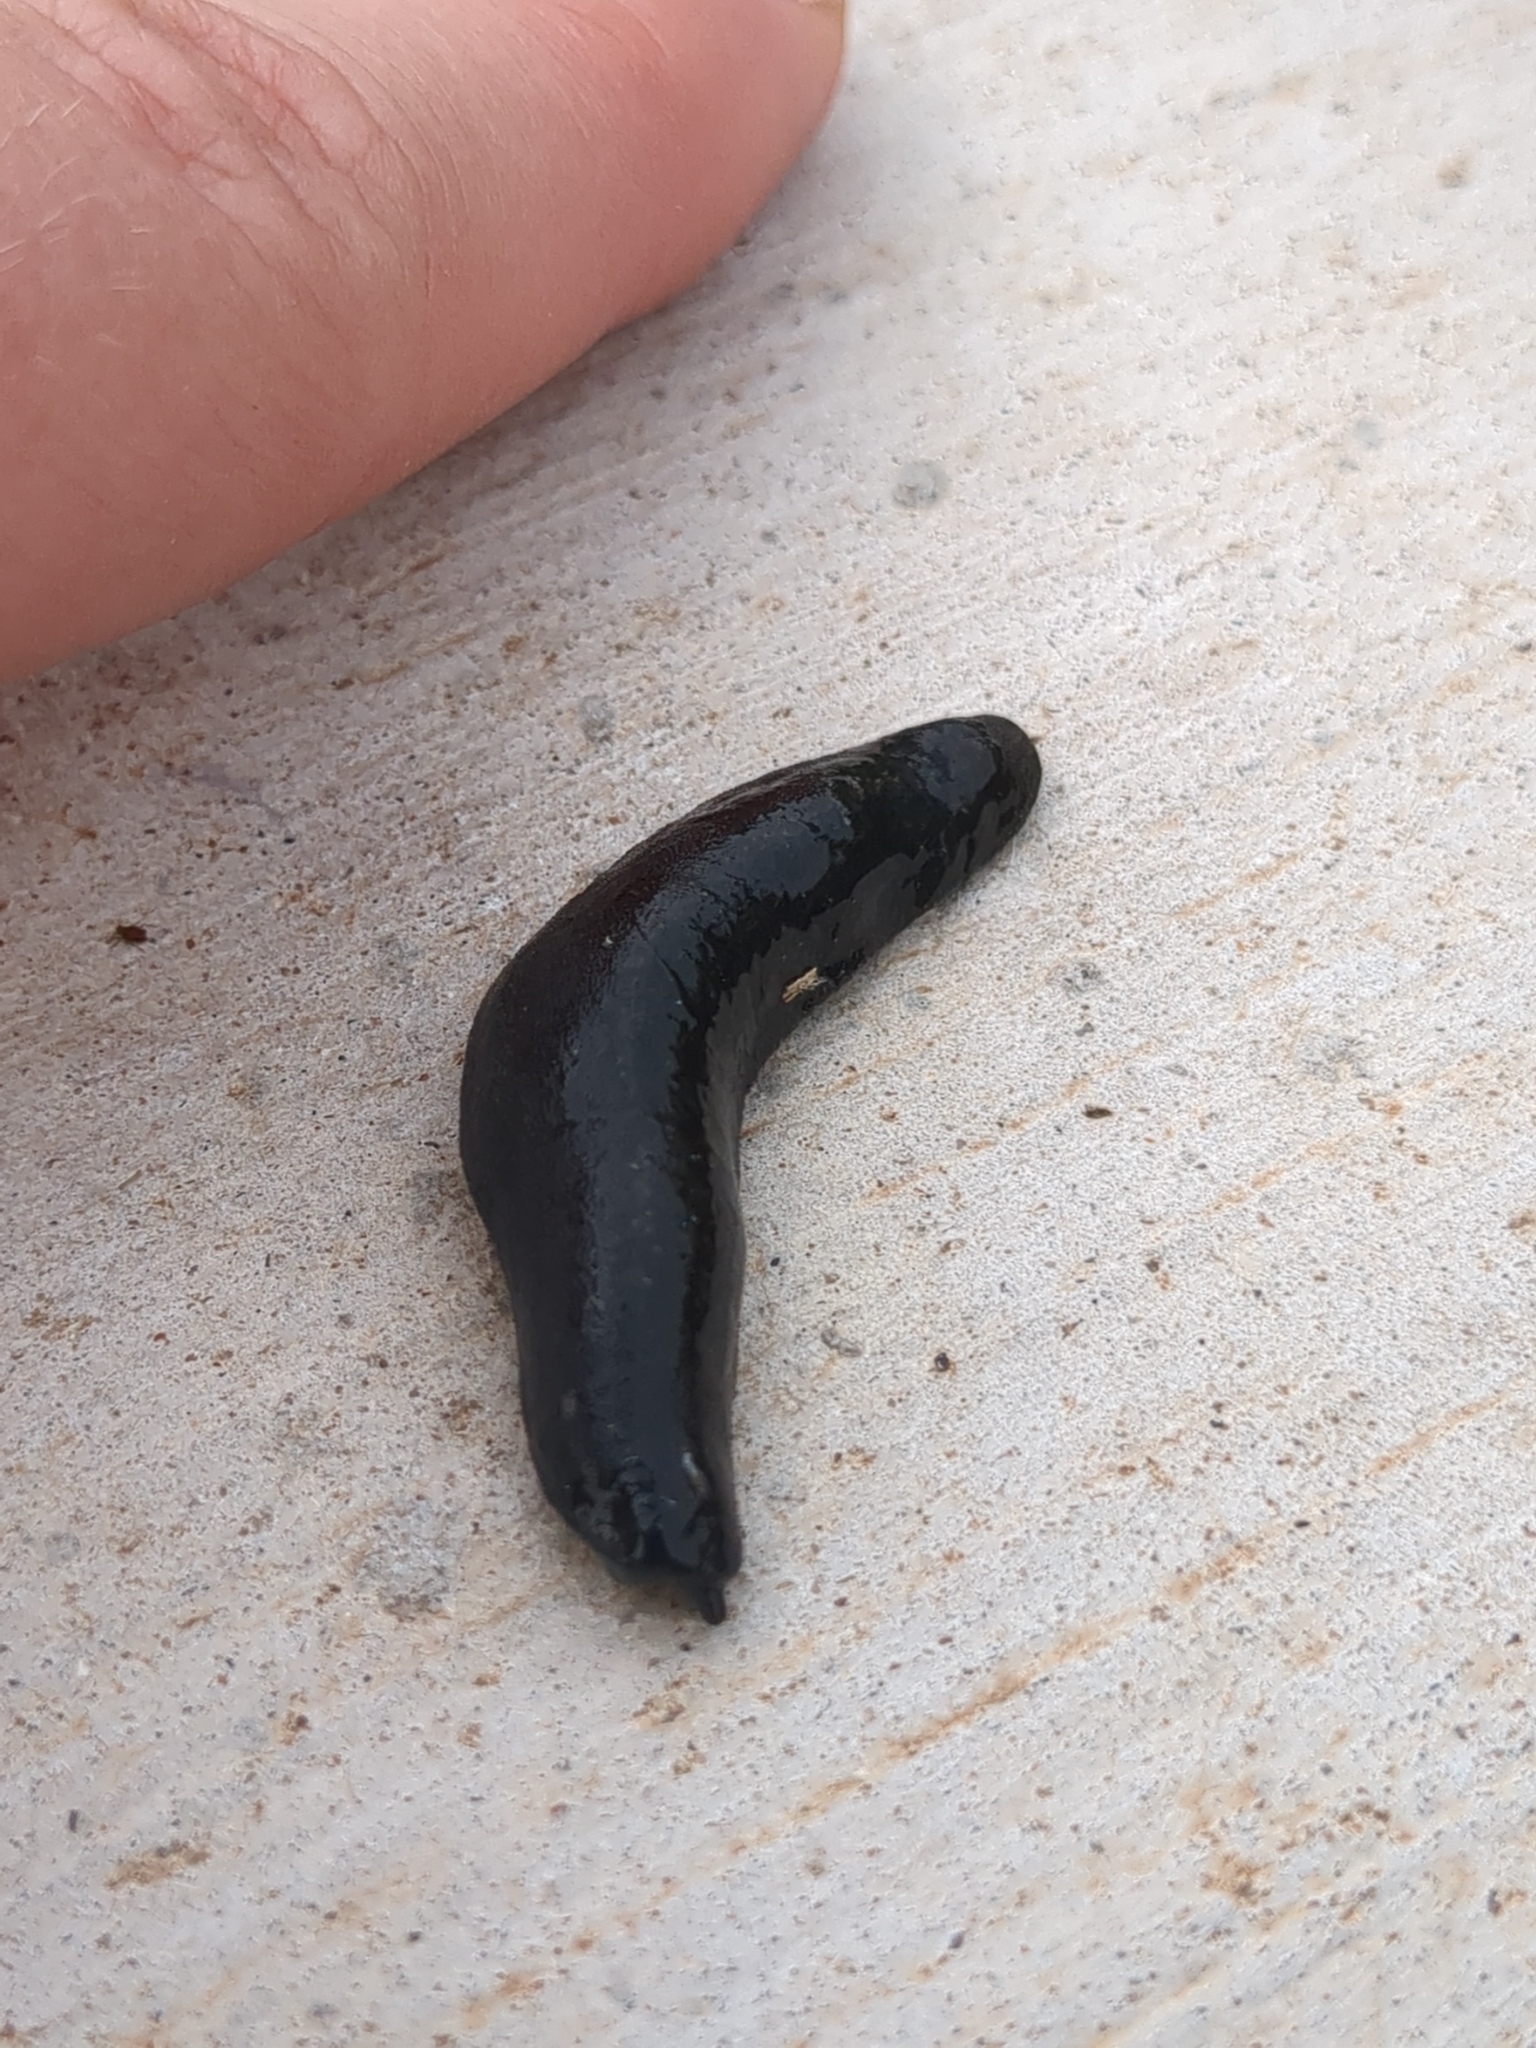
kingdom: Animalia
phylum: Mollusca
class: Gastropoda
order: Systellommatophora
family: Veronicellidae
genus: Belocaulus
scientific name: Belocaulus angustipes
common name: Black velvet leatherleaf slug
